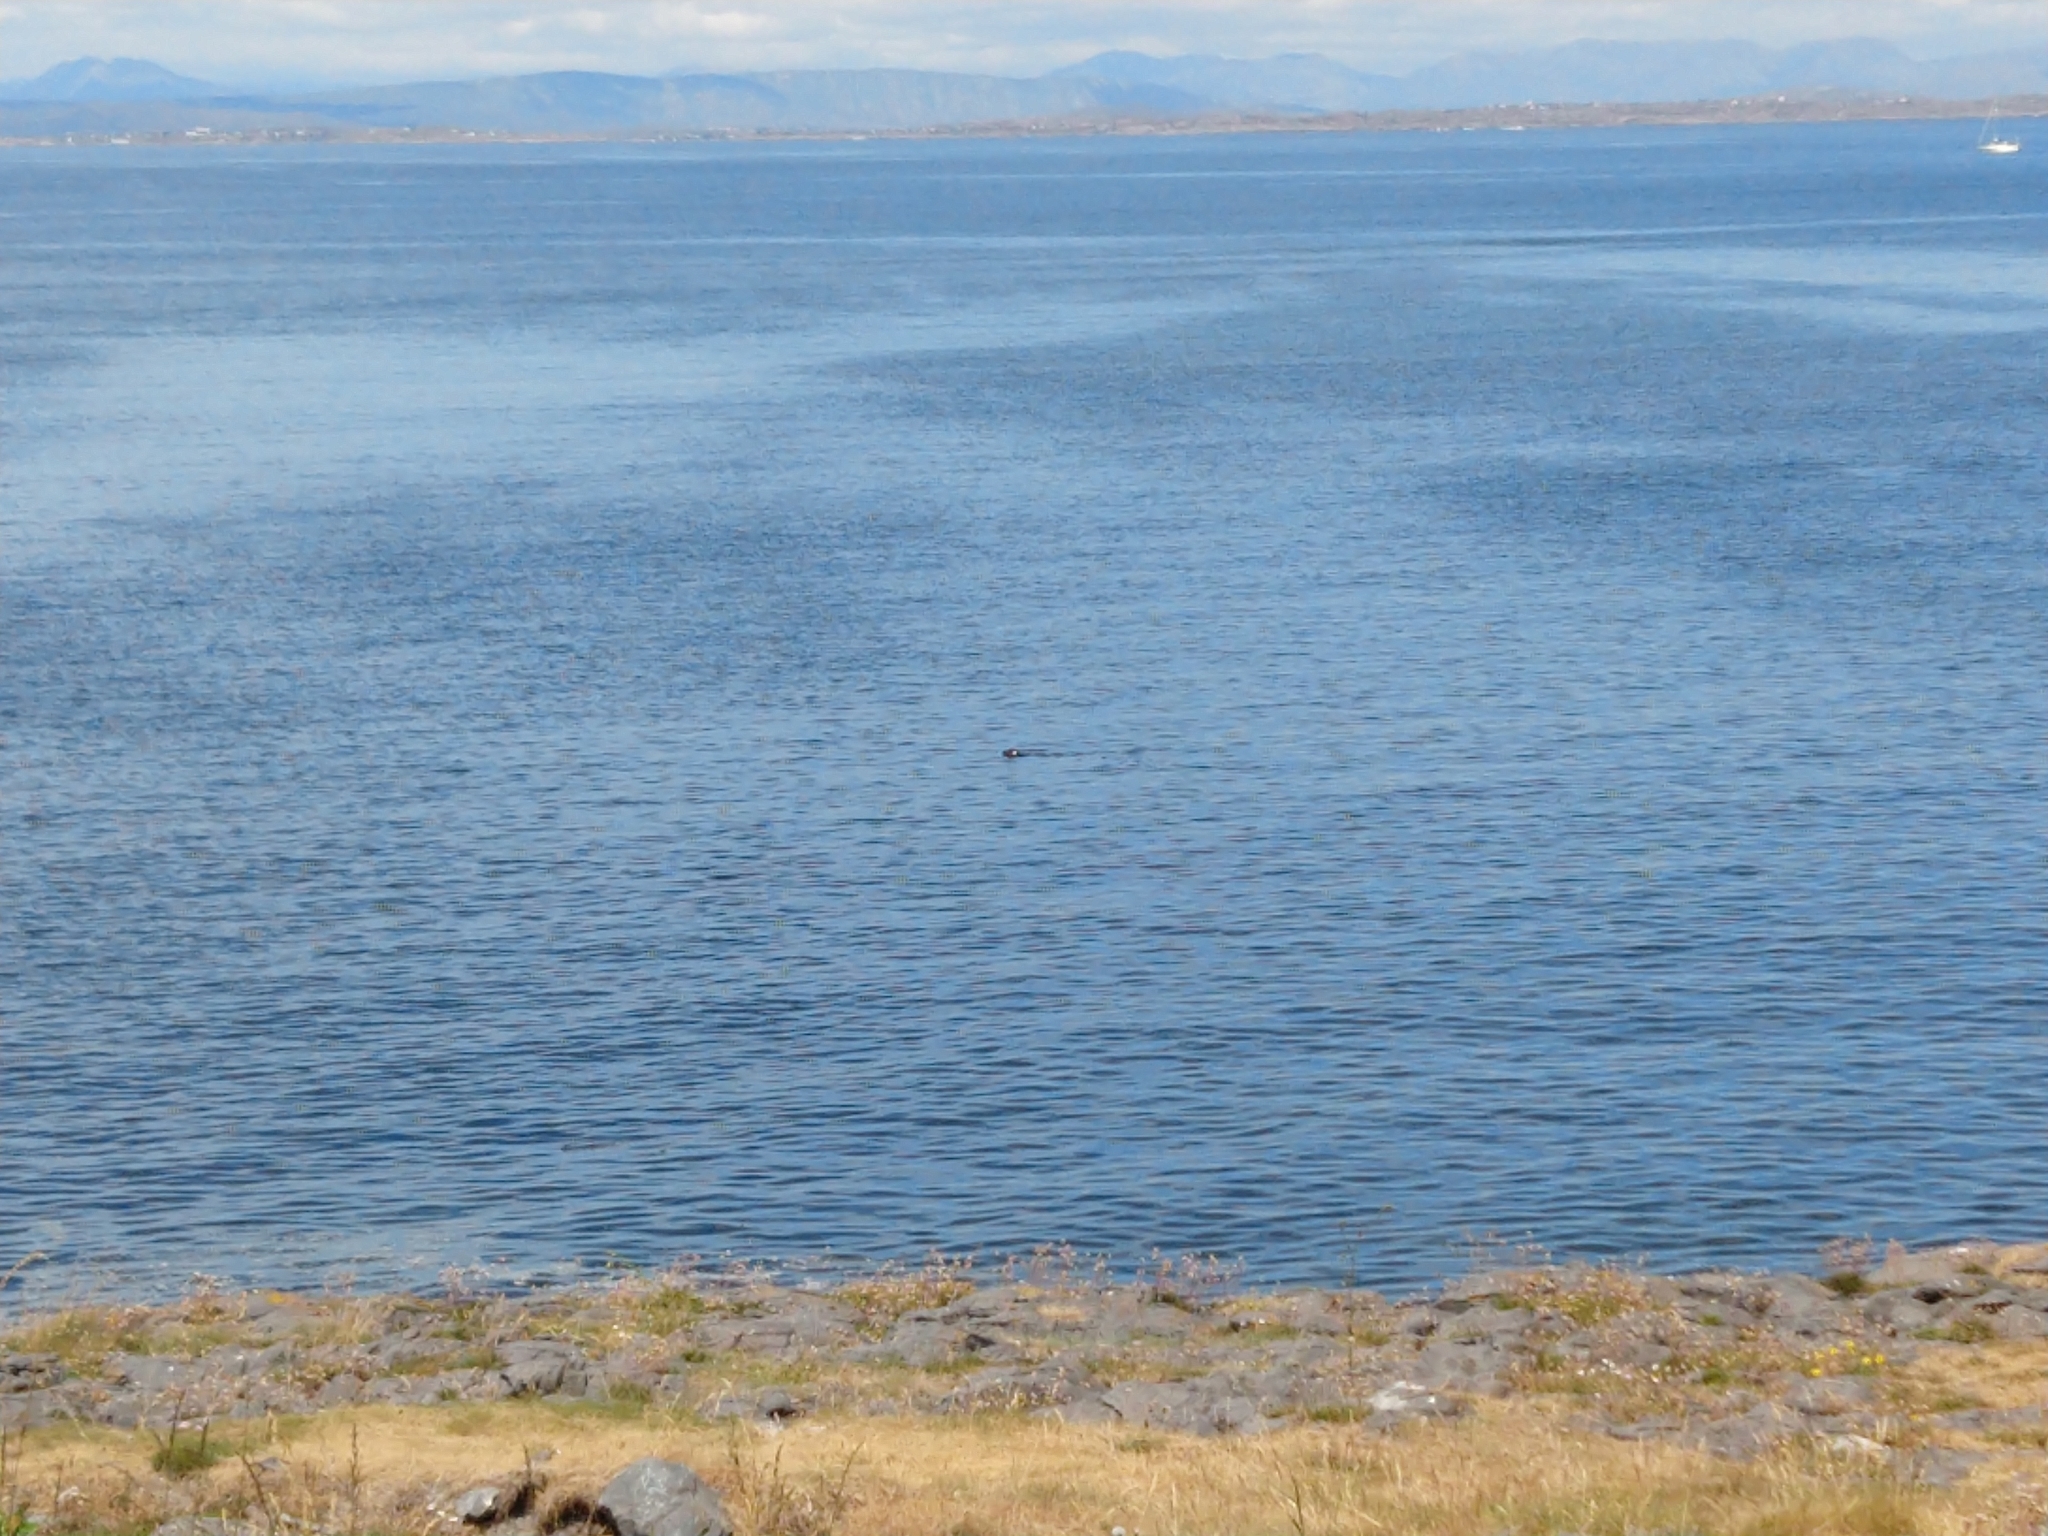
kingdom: Animalia
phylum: Chordata
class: Mammalia
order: Carnivora
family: Phocidae
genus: Phoca
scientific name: Phoca vitulina
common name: Harbor seal
